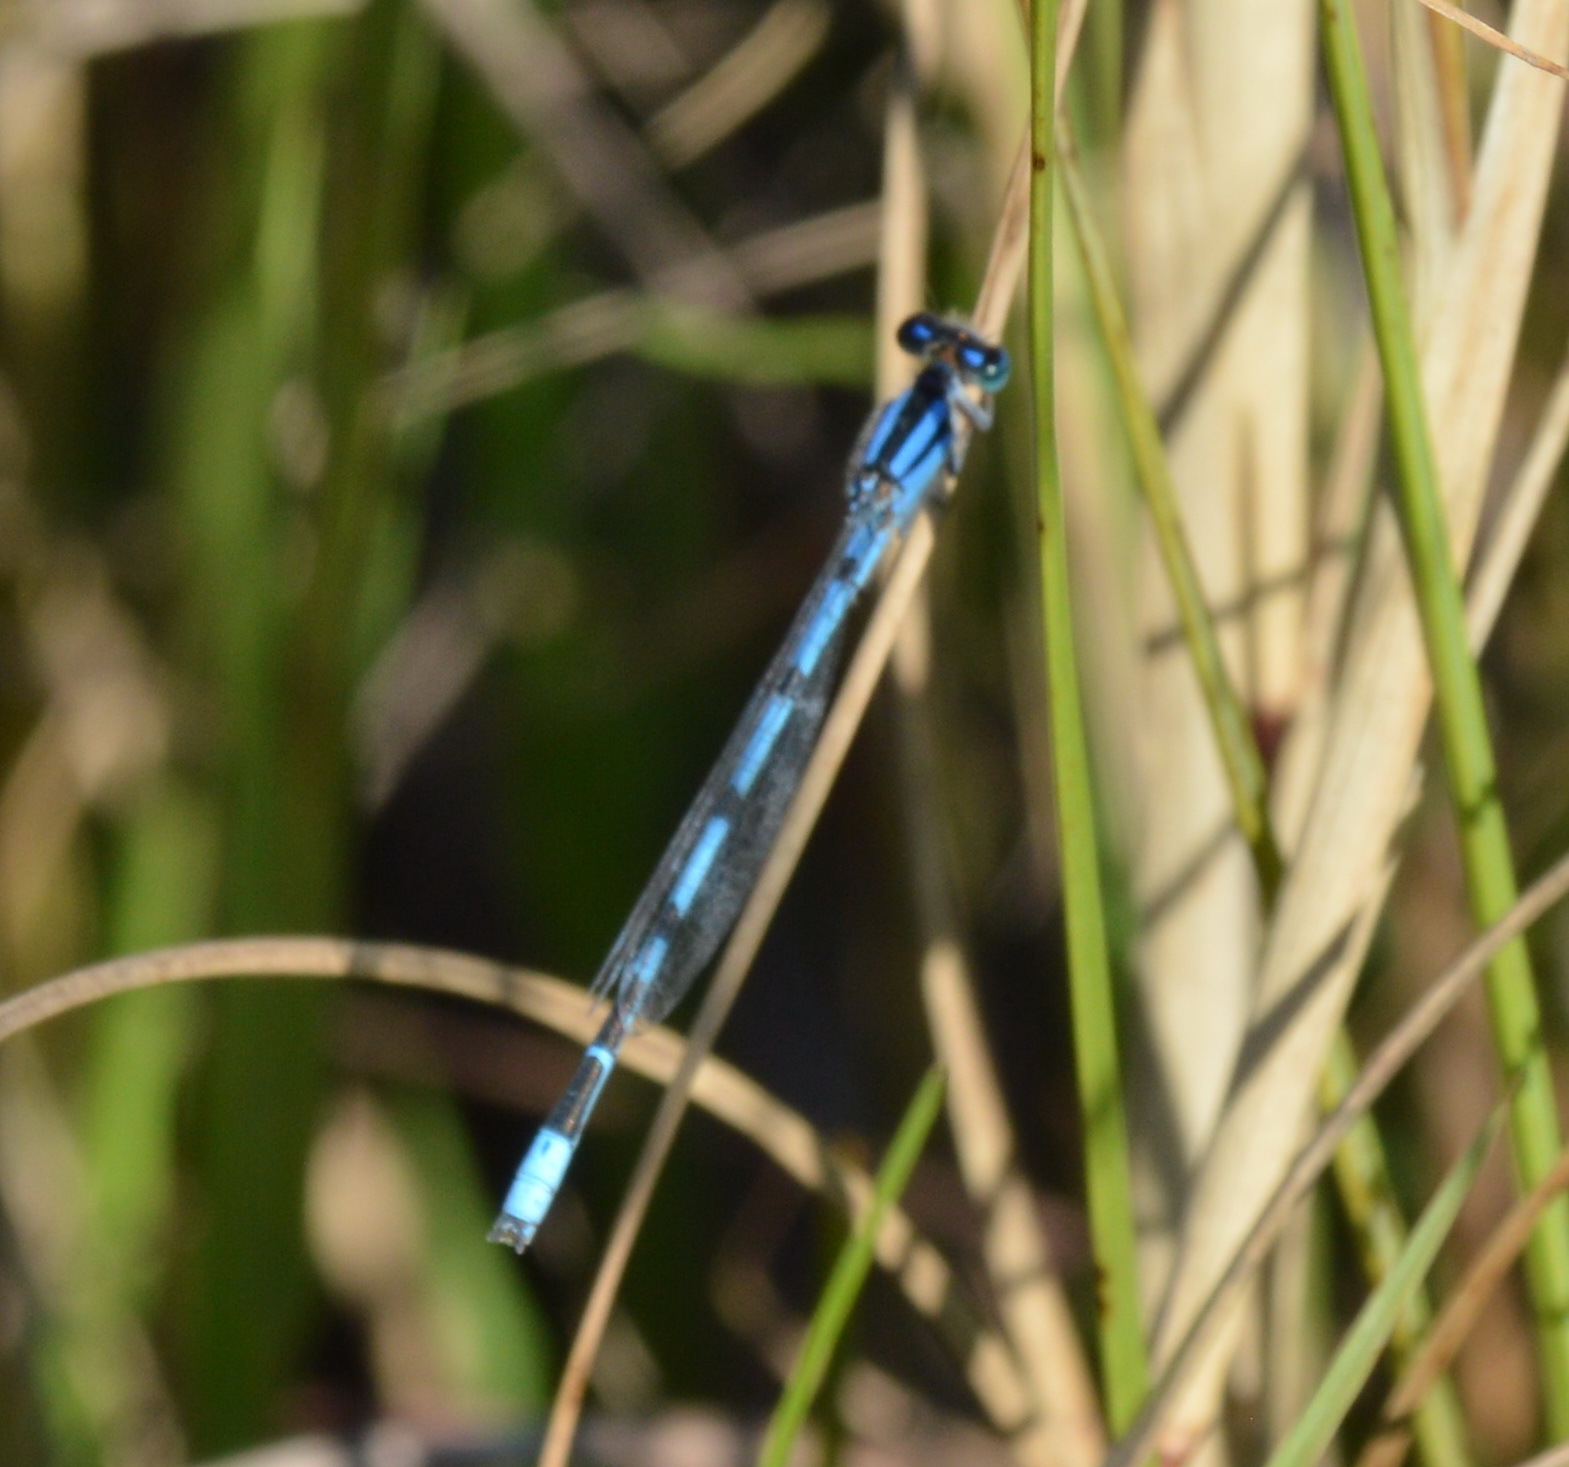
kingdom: Animalia
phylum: Arthropoda
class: Insecta
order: Odonata
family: Coenagrionidae
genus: Enallagma
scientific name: Enallagma civile
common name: Damselfly
